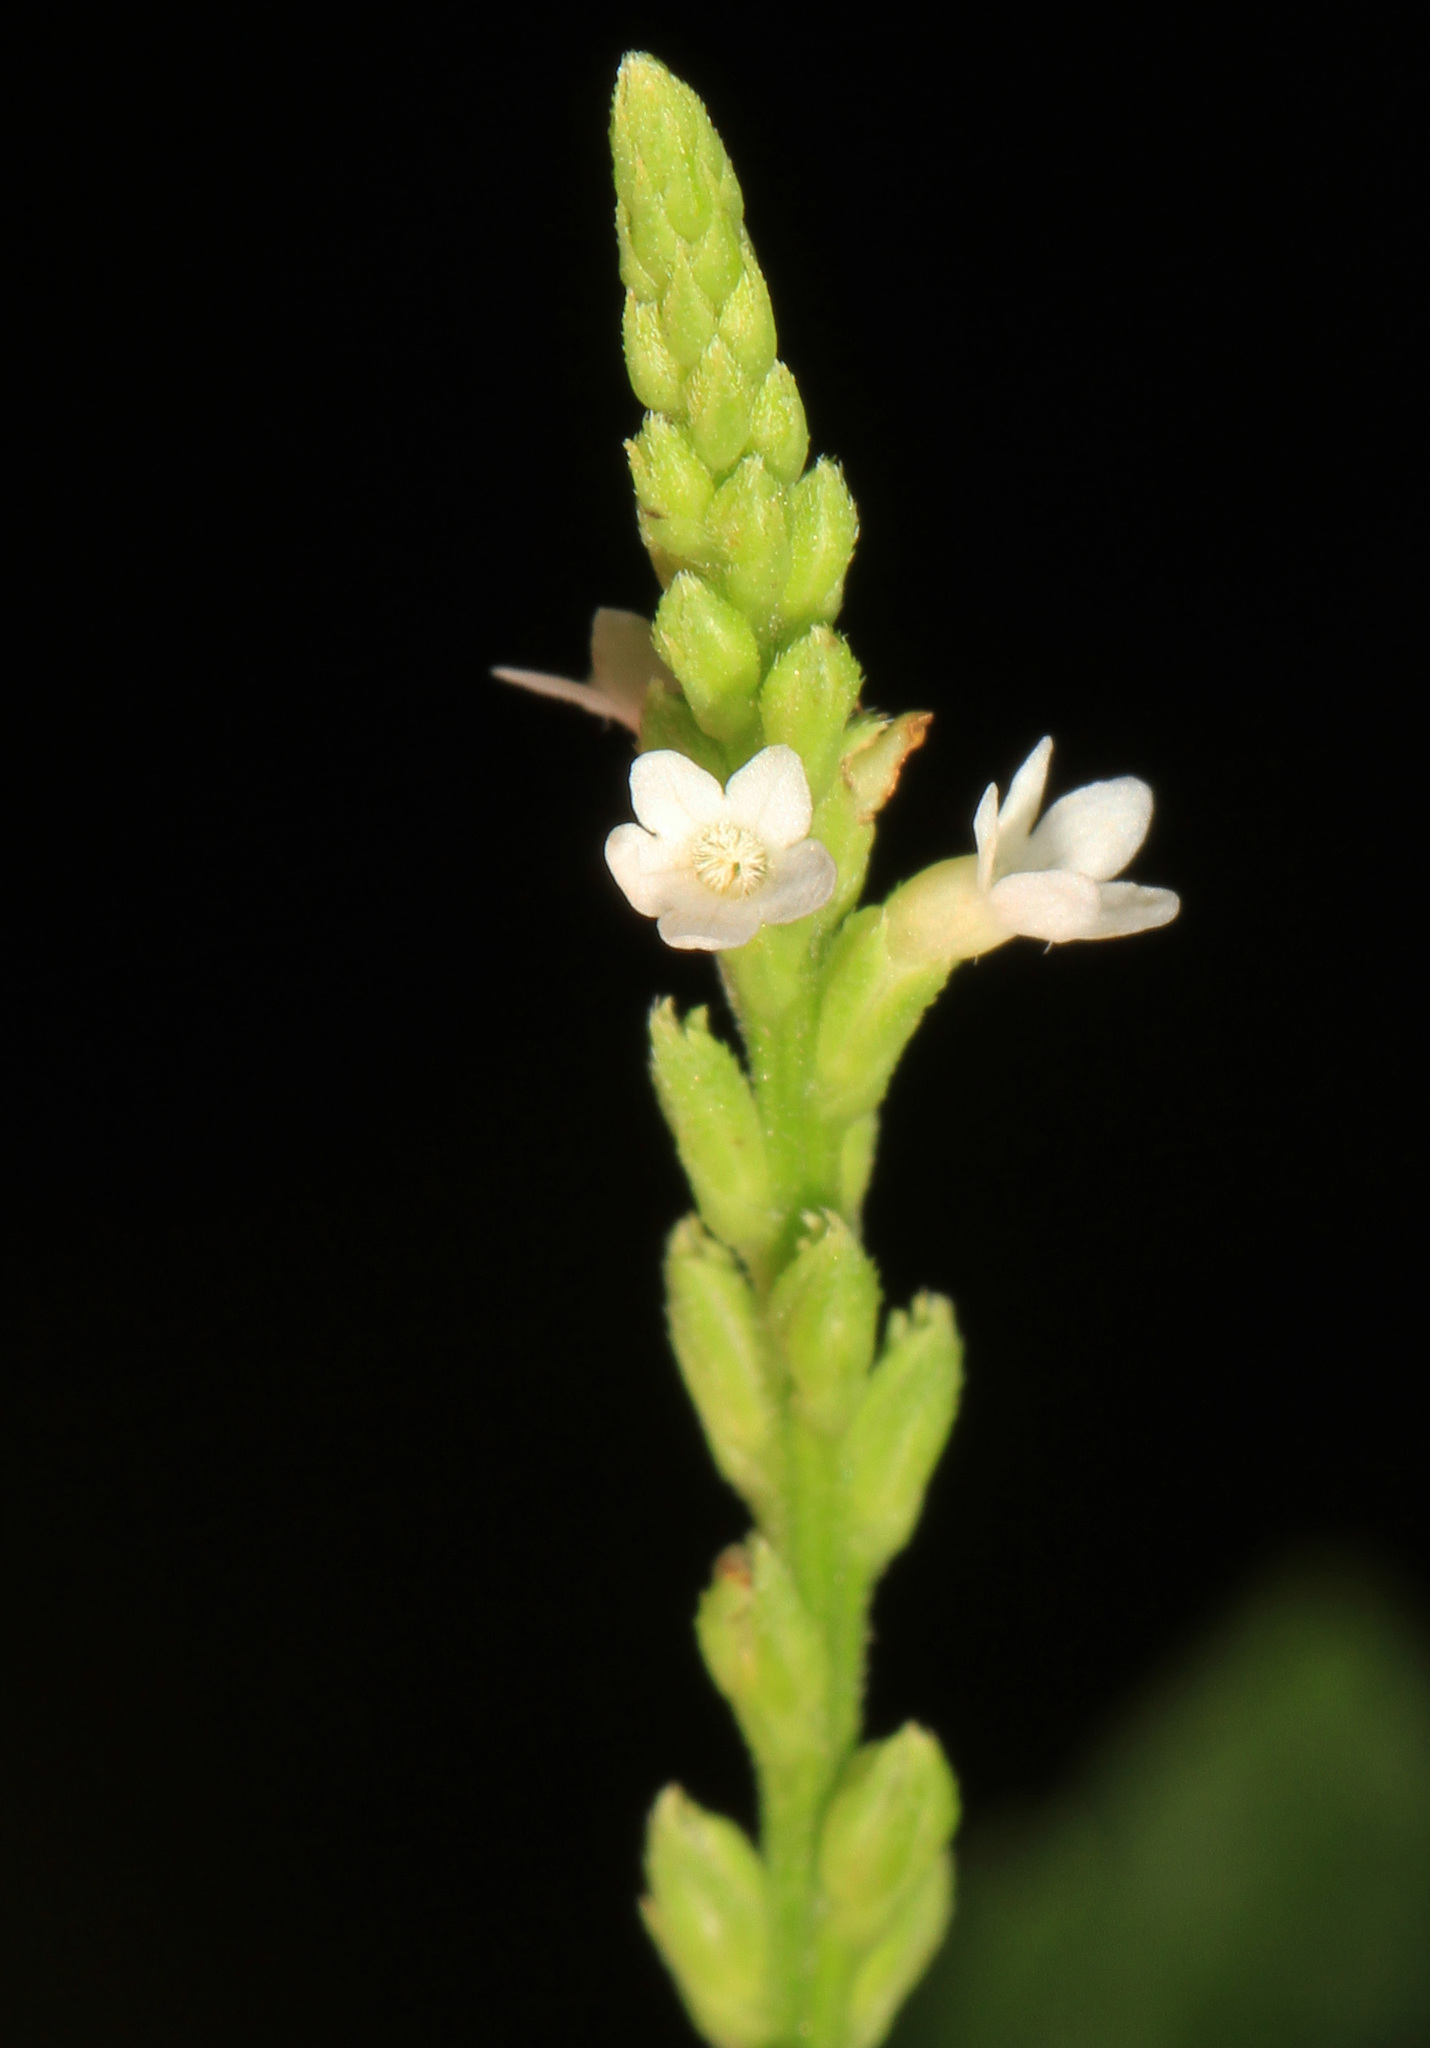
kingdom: Plantae
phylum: Tracheophyta
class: Magnoliopsida
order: Lamiales
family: Verbenaceae
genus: Verbena
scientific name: Verbena urticifolia
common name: Nettle-leaved vervain
